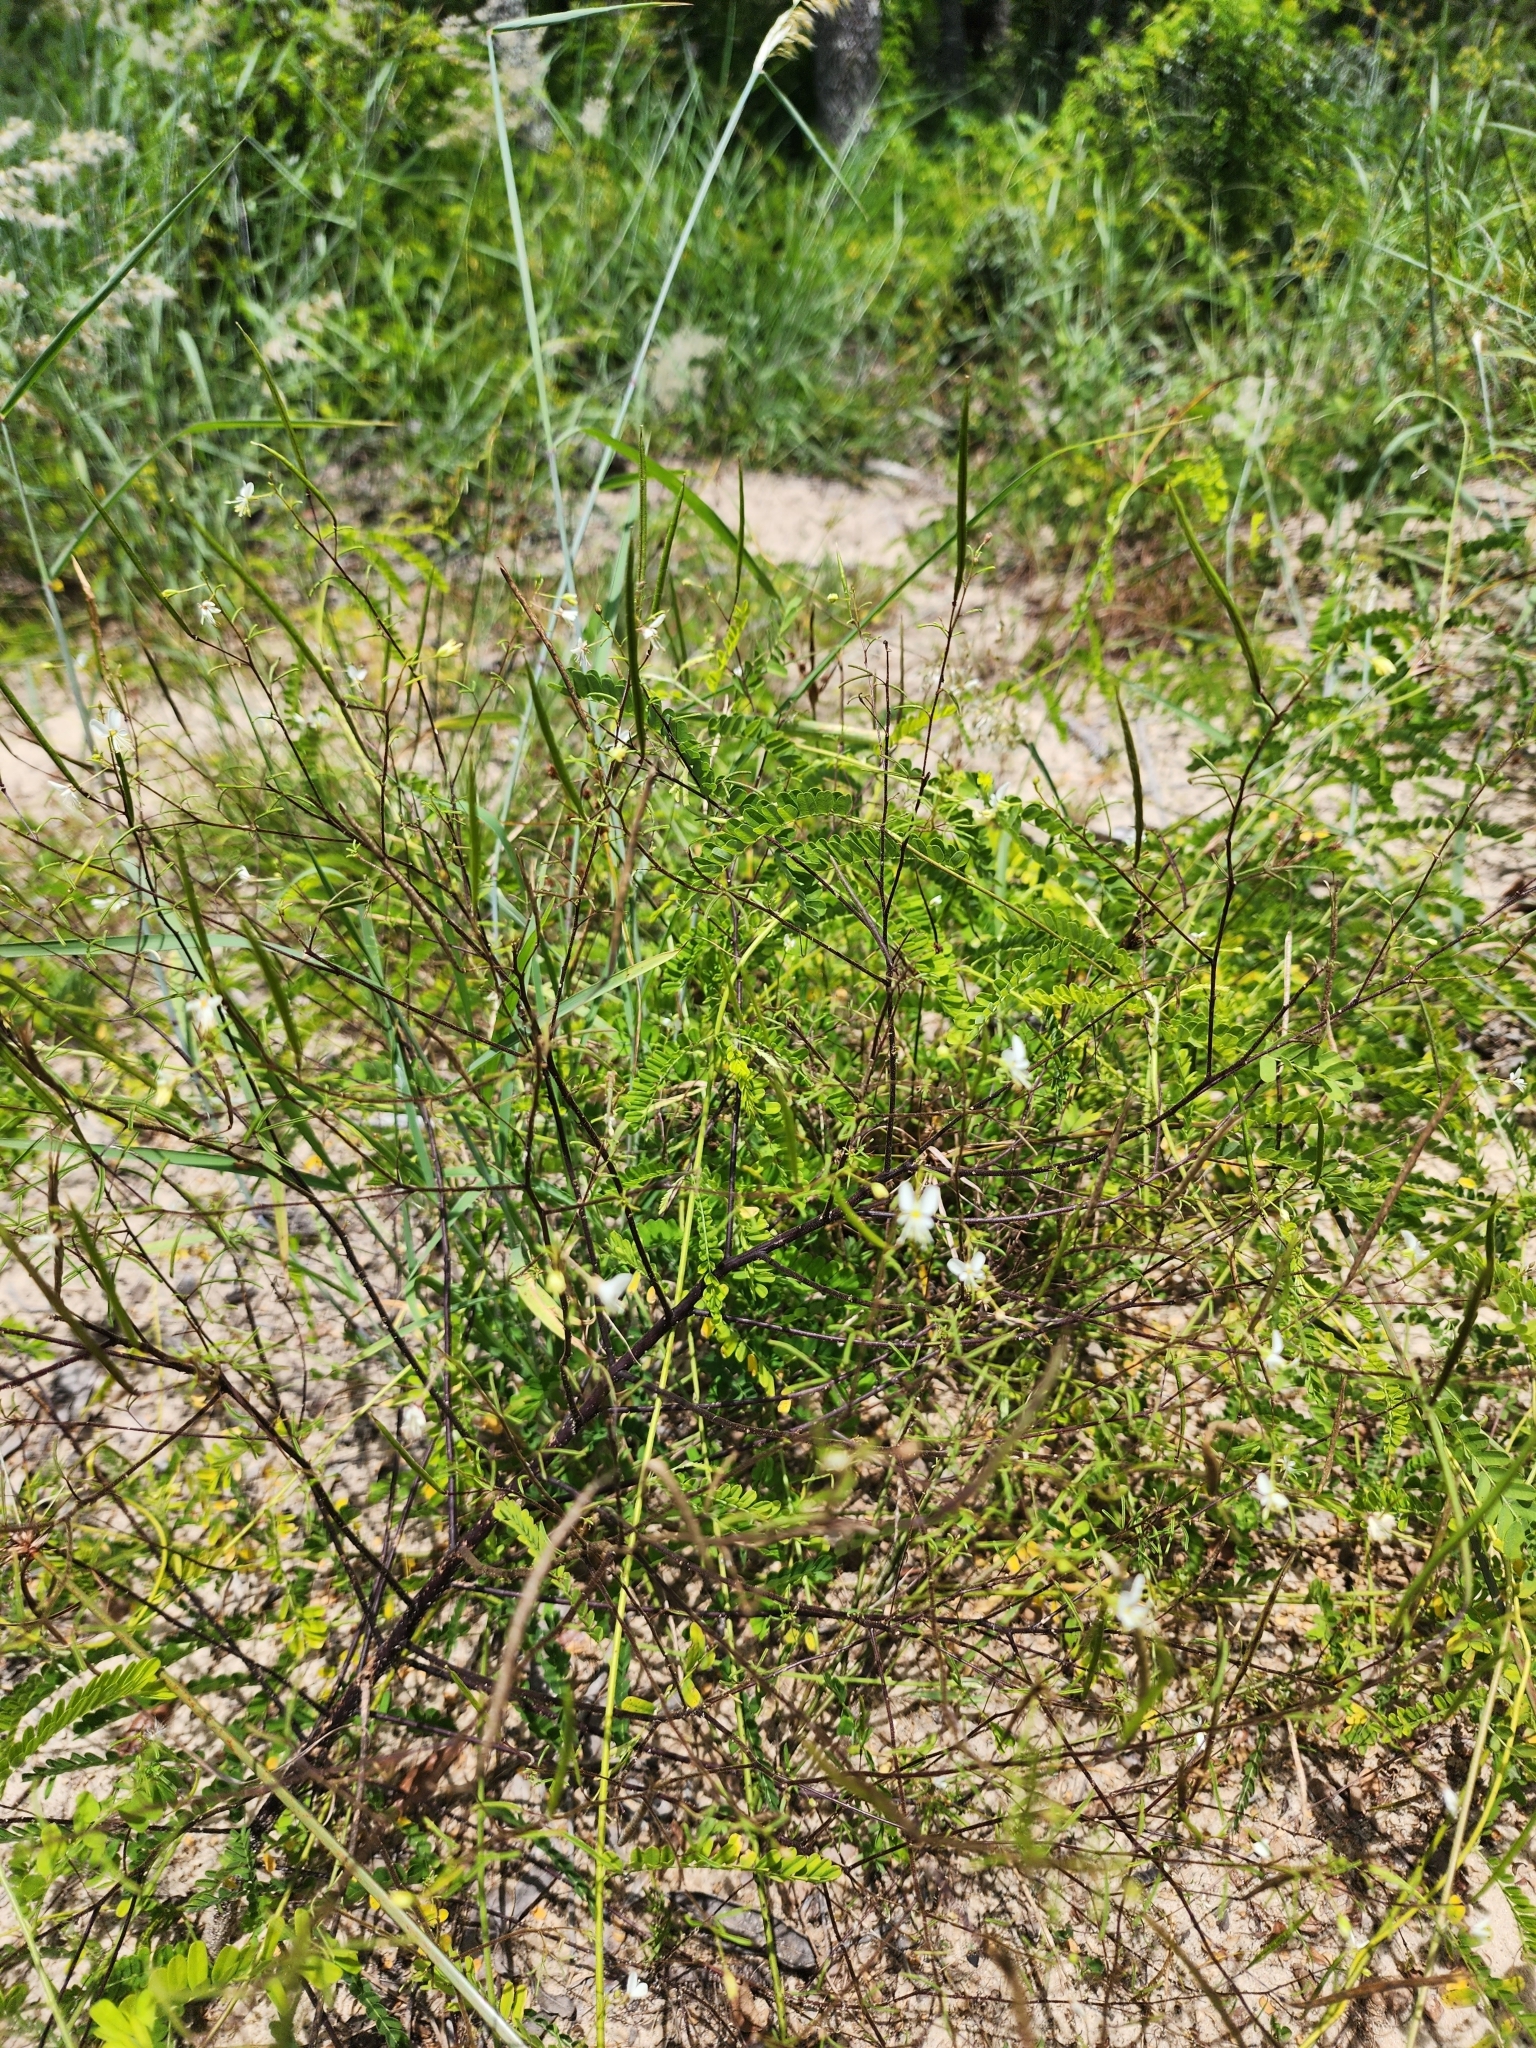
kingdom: Plantae
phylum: Tracheophyta
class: Magnoliopsida
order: Brassicales
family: Cleomaceae
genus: Polanisia
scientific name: Polanisia tenuifolia
